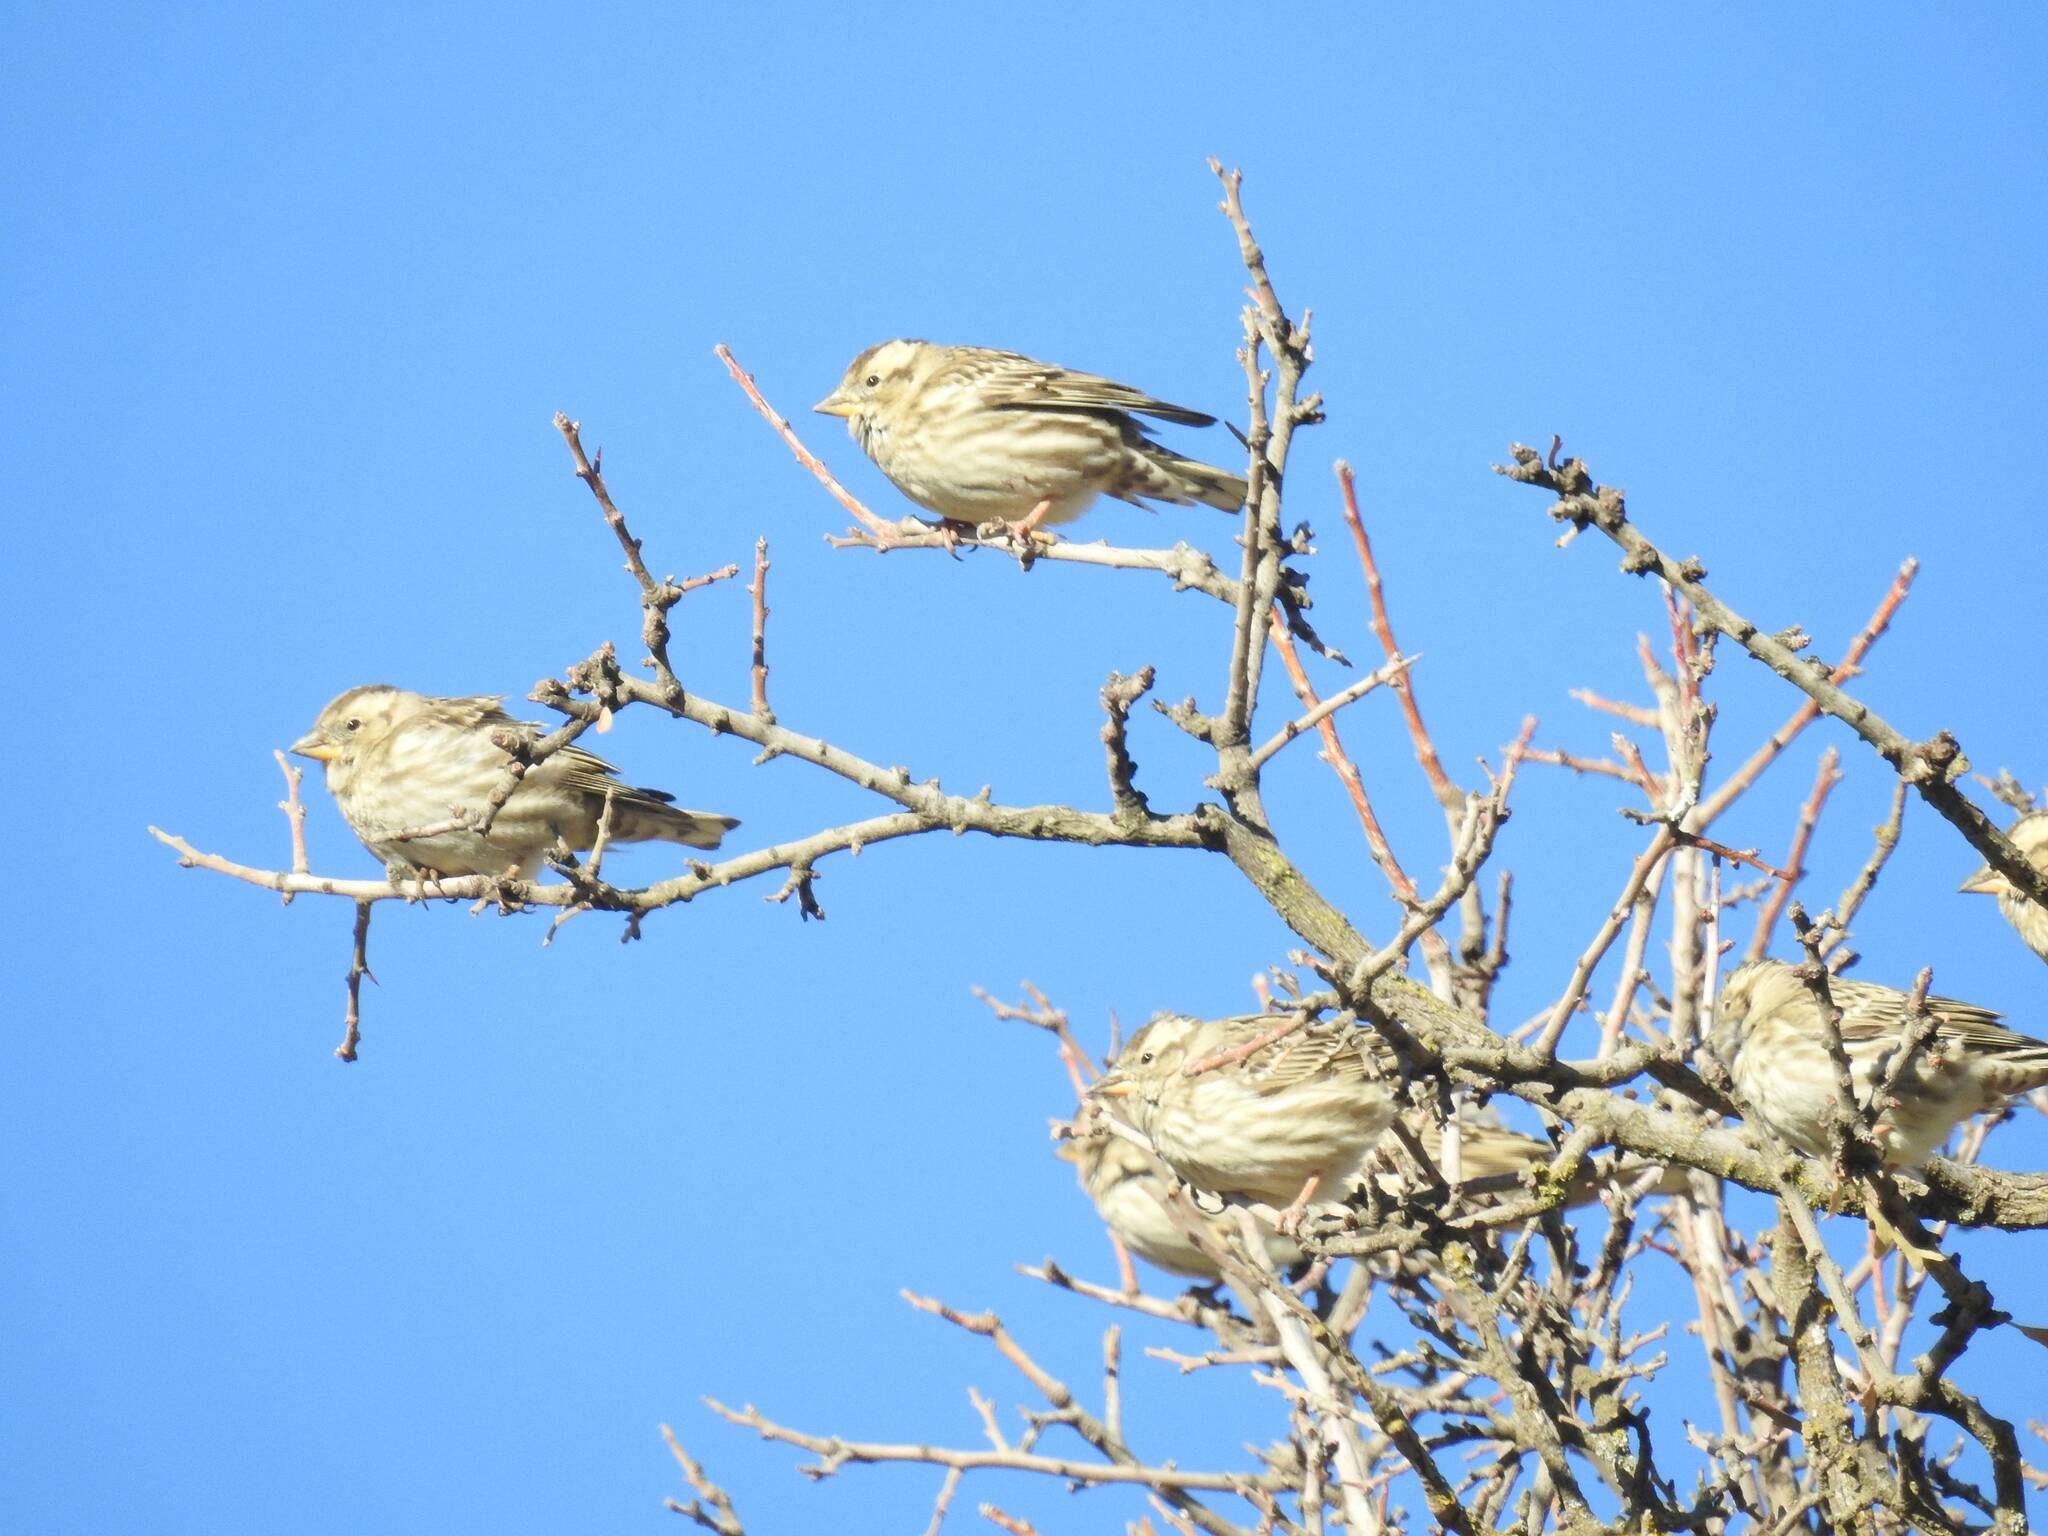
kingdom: Animalia
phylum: Chordata
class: Aves
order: Passeriformes
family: Passeridae
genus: Petronia
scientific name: Petronia petronia
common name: Rock sparrow
